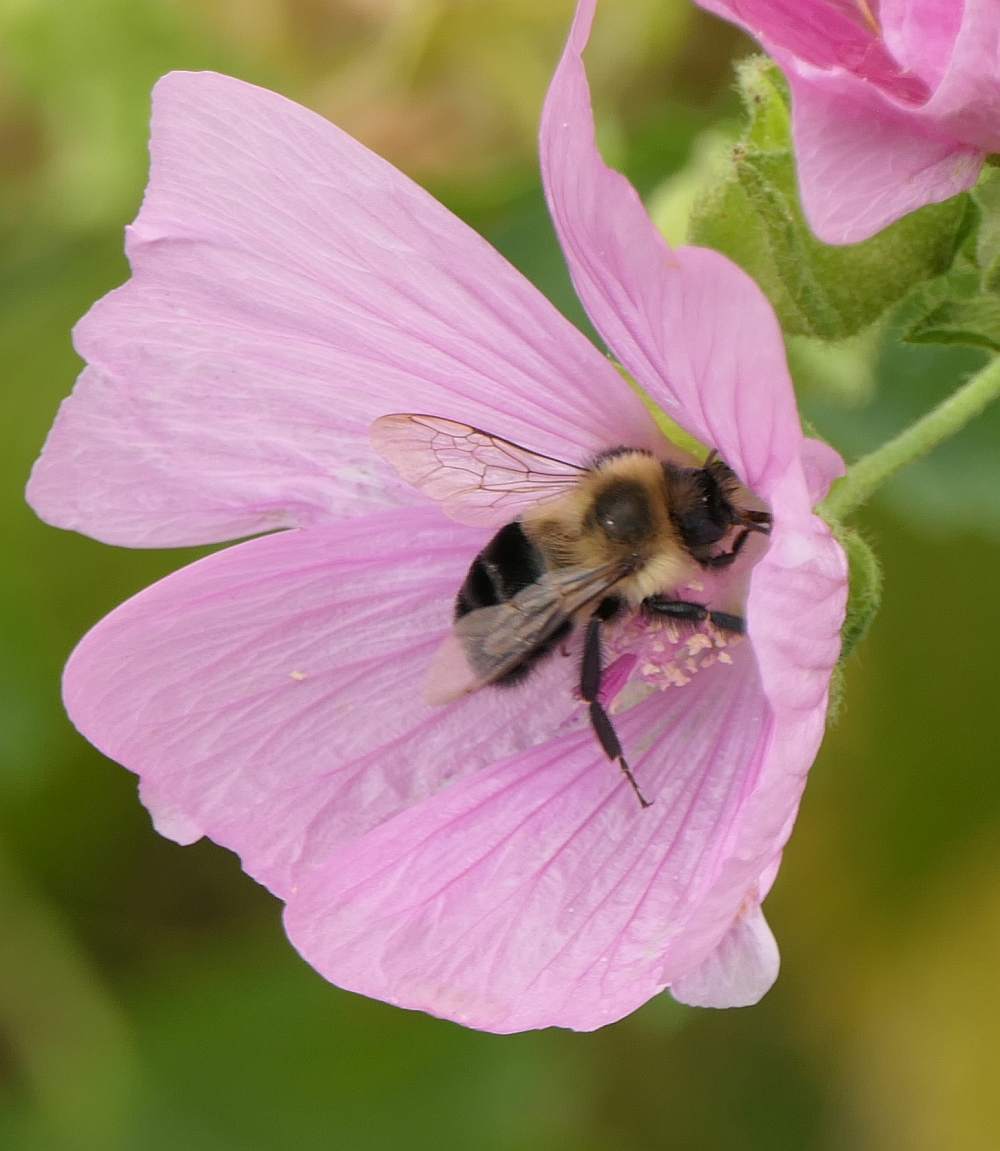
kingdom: Animalia
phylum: Arthropoda
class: Insecta
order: Hymenoptera
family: Apidae
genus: Bombus
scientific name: Bombus impatiens
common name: Common eastern bumble bee
